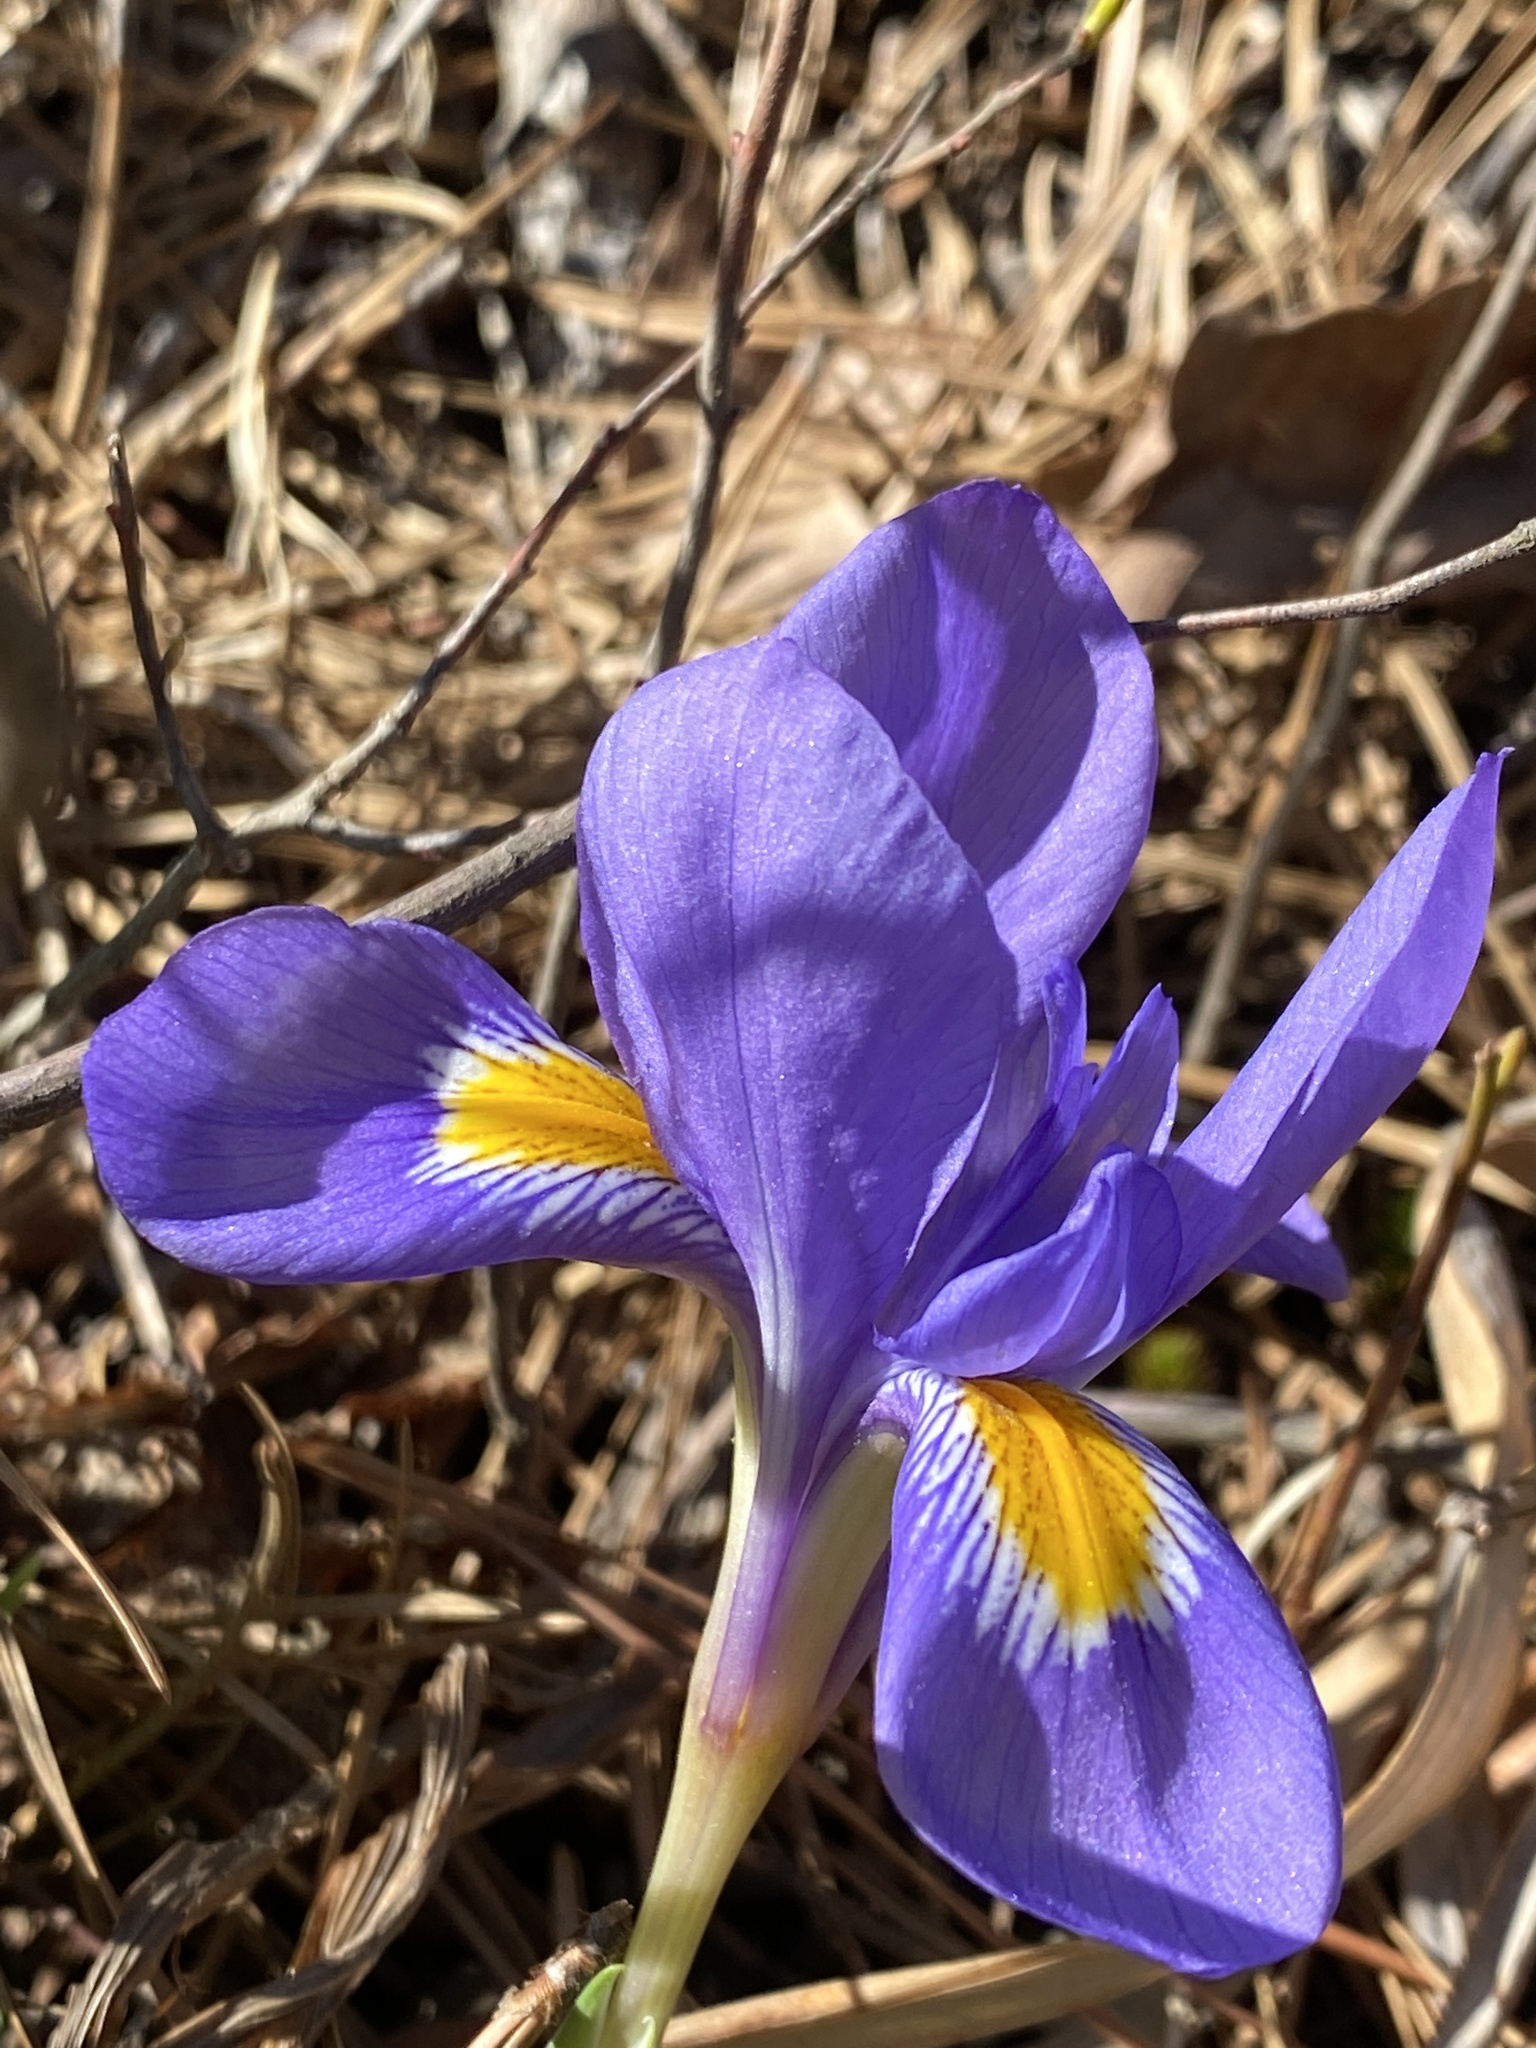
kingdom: Plantae
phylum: Tracheophyta
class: Liliopsida
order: Asparagales
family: Iridaceae
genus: Iris
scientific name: Iris verna
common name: Dwarf iris
